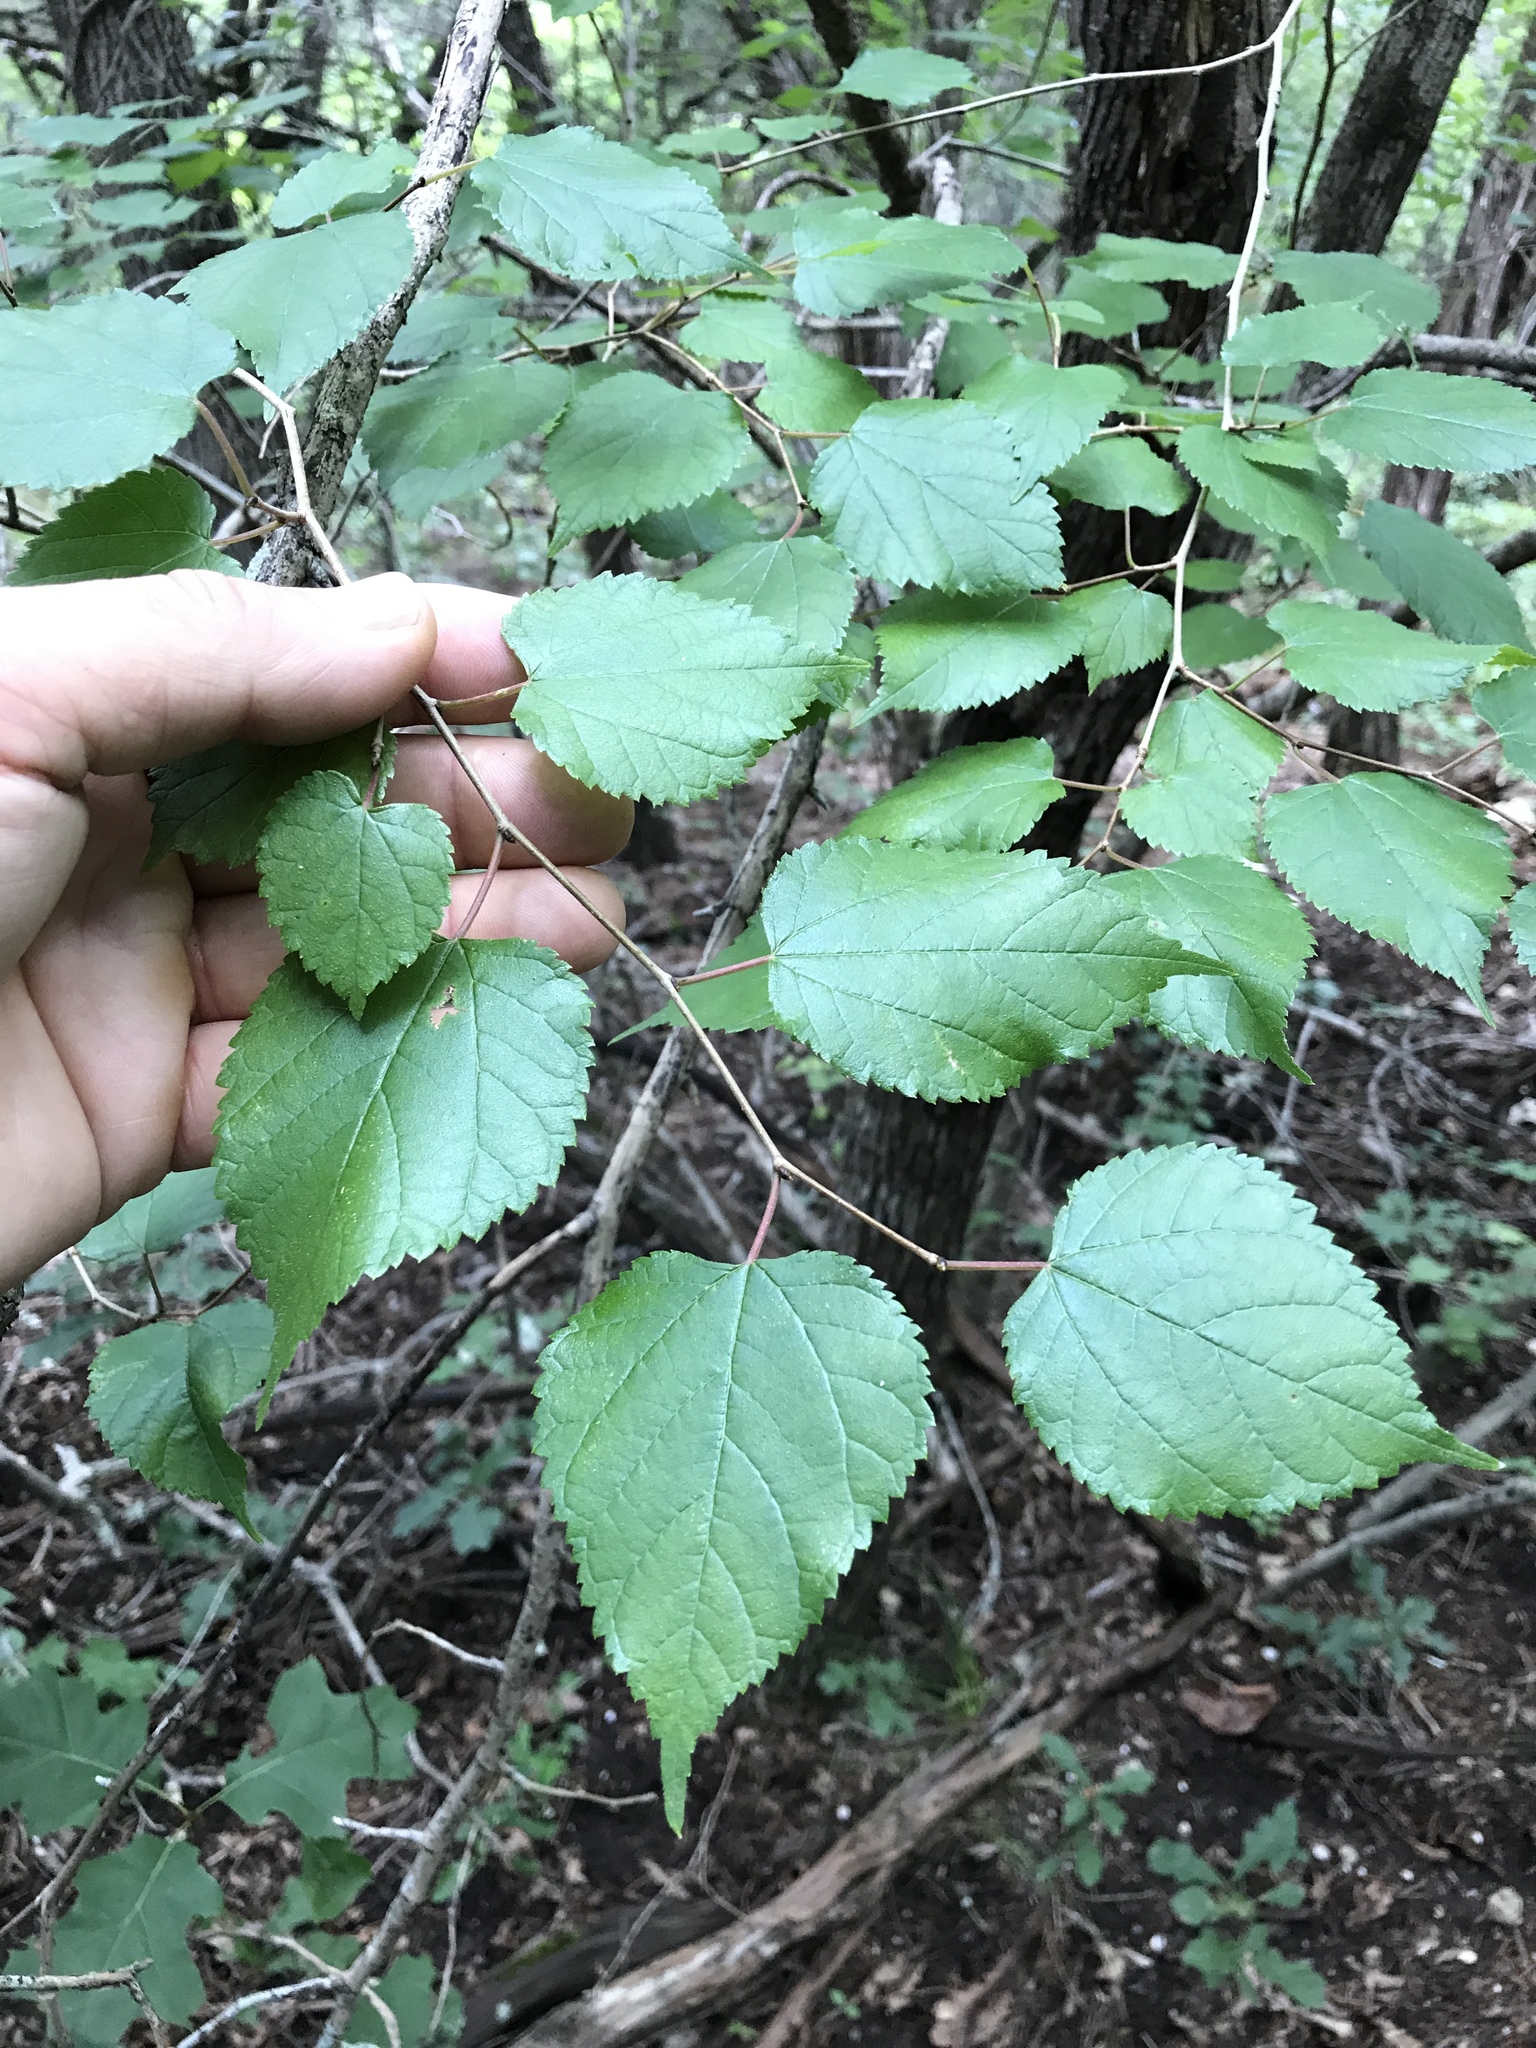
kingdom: Plantae
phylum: Tracheophyta
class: Magnoliopsida
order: Rosales
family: Moraceae
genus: Morus
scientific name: Morus microphylla
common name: Mexican mulberry
